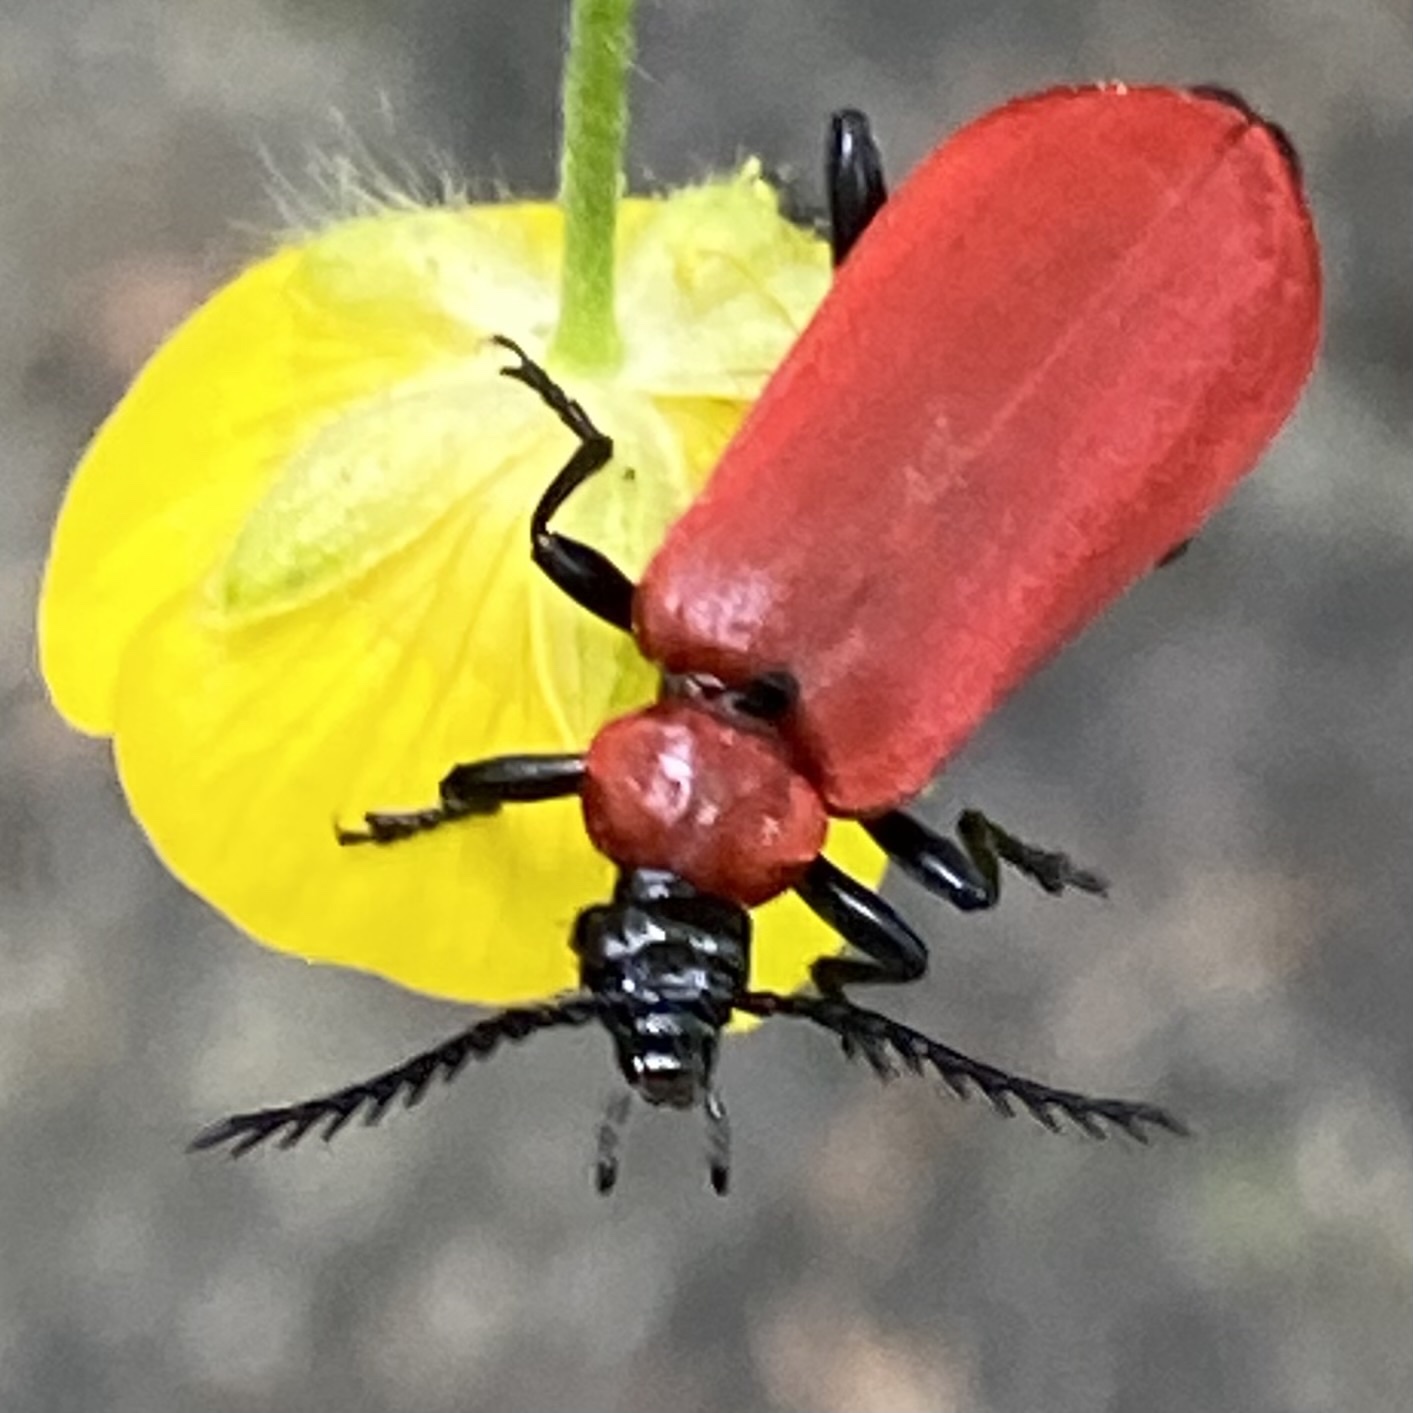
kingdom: Animalia
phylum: Arthropoda
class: Insecta
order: Coleoptera
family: Pyrochroidae
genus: Pyrochroa
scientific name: Pyrochroa coccinea
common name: Black-headed cardinal beetle
